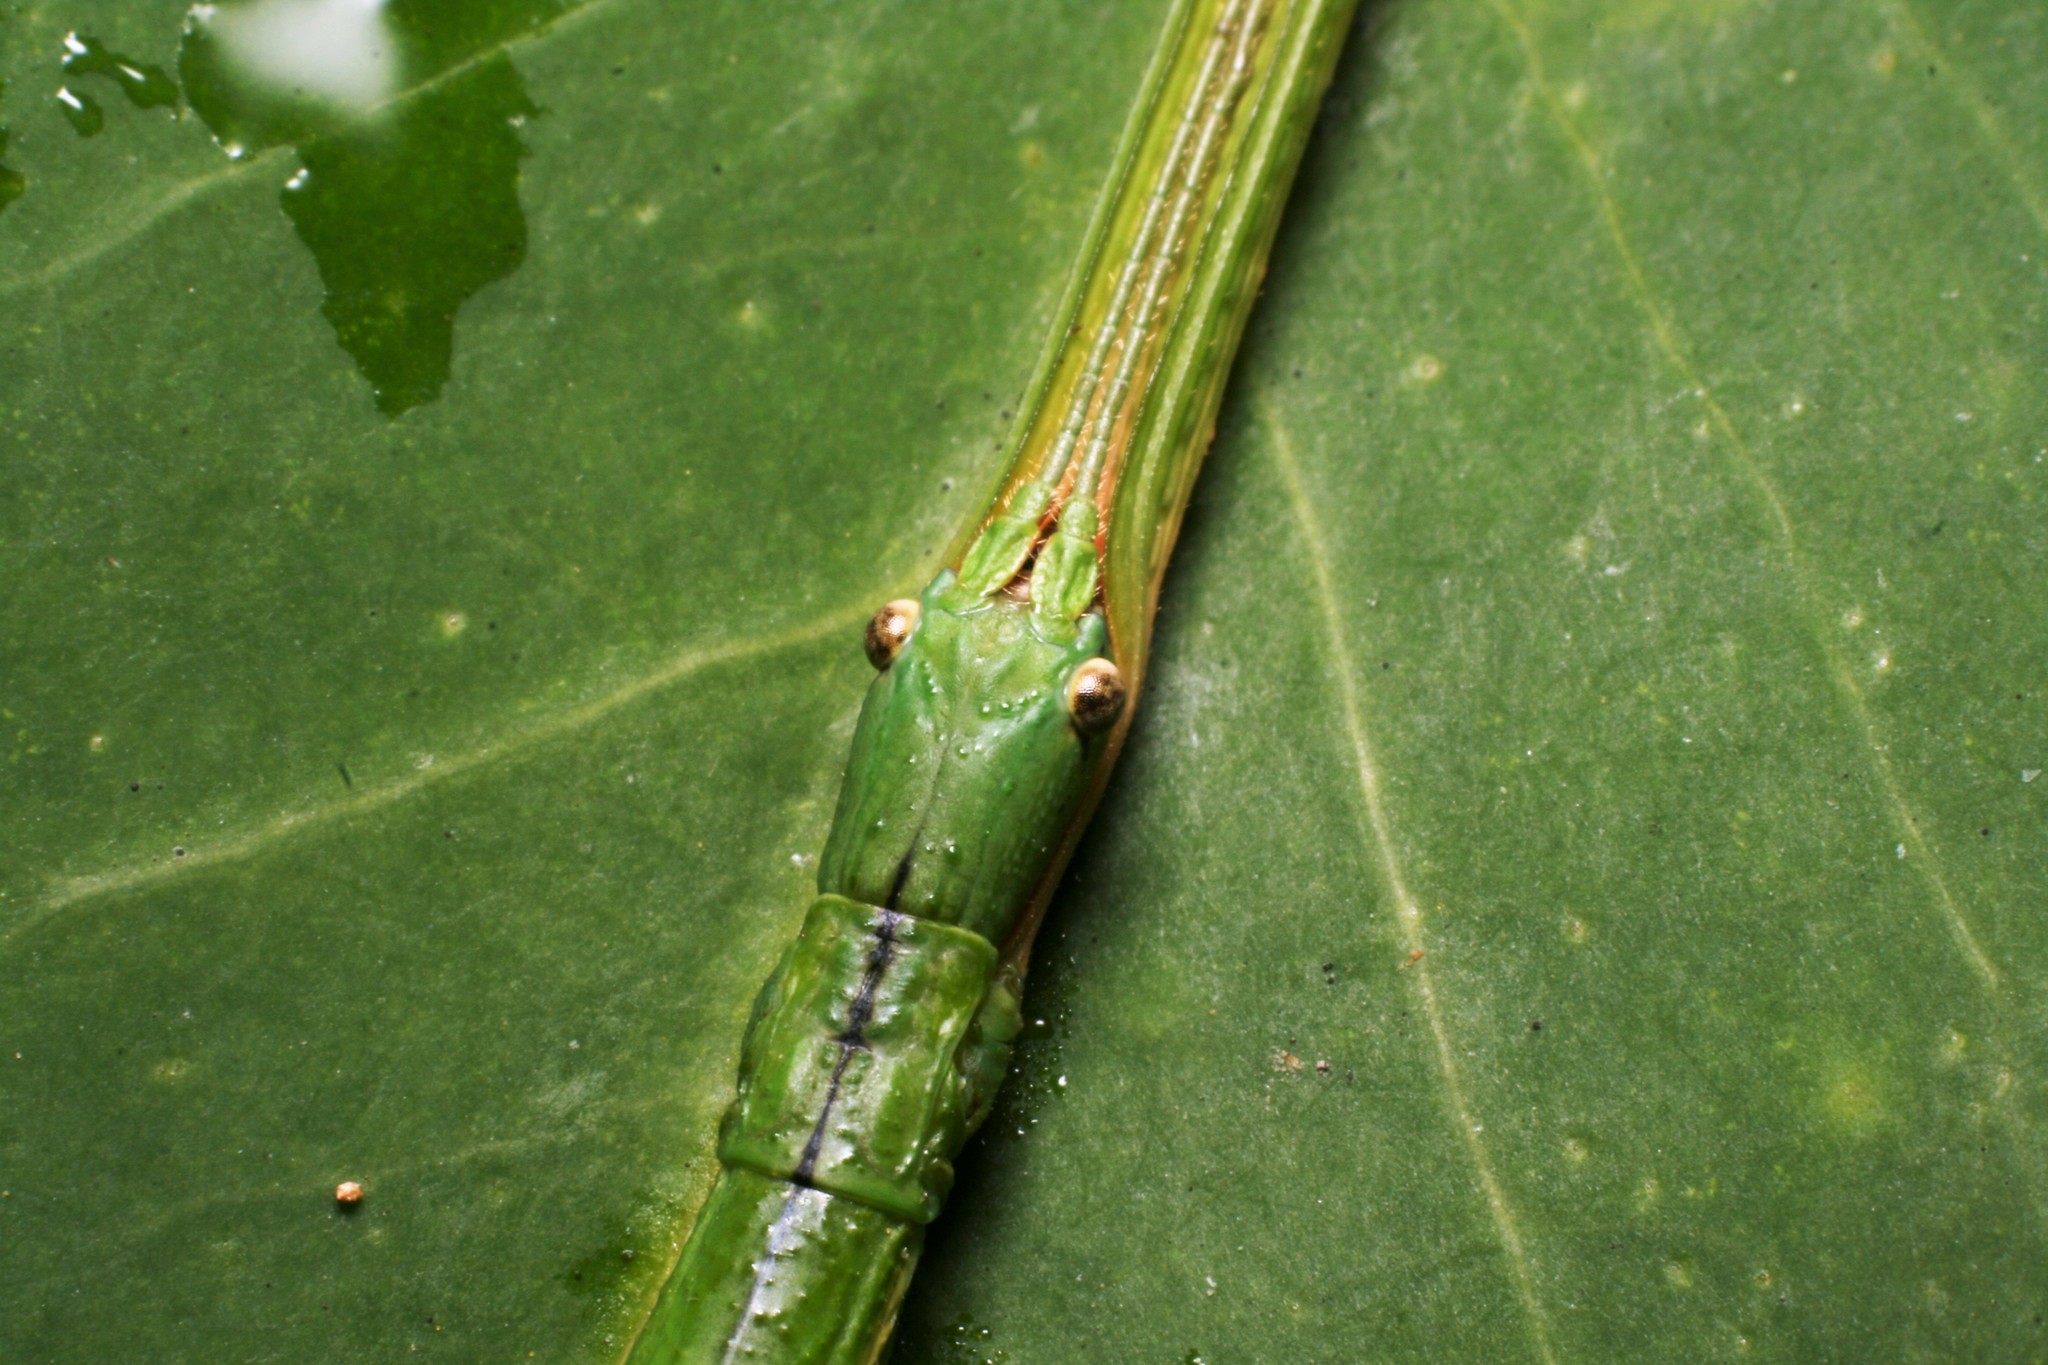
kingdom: Animalia
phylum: Arthropoda
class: Insecta
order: Phasmida
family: Phasmatidae
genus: Clitarchus
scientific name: Clitarchus hookeri
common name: Smooth stick insect
